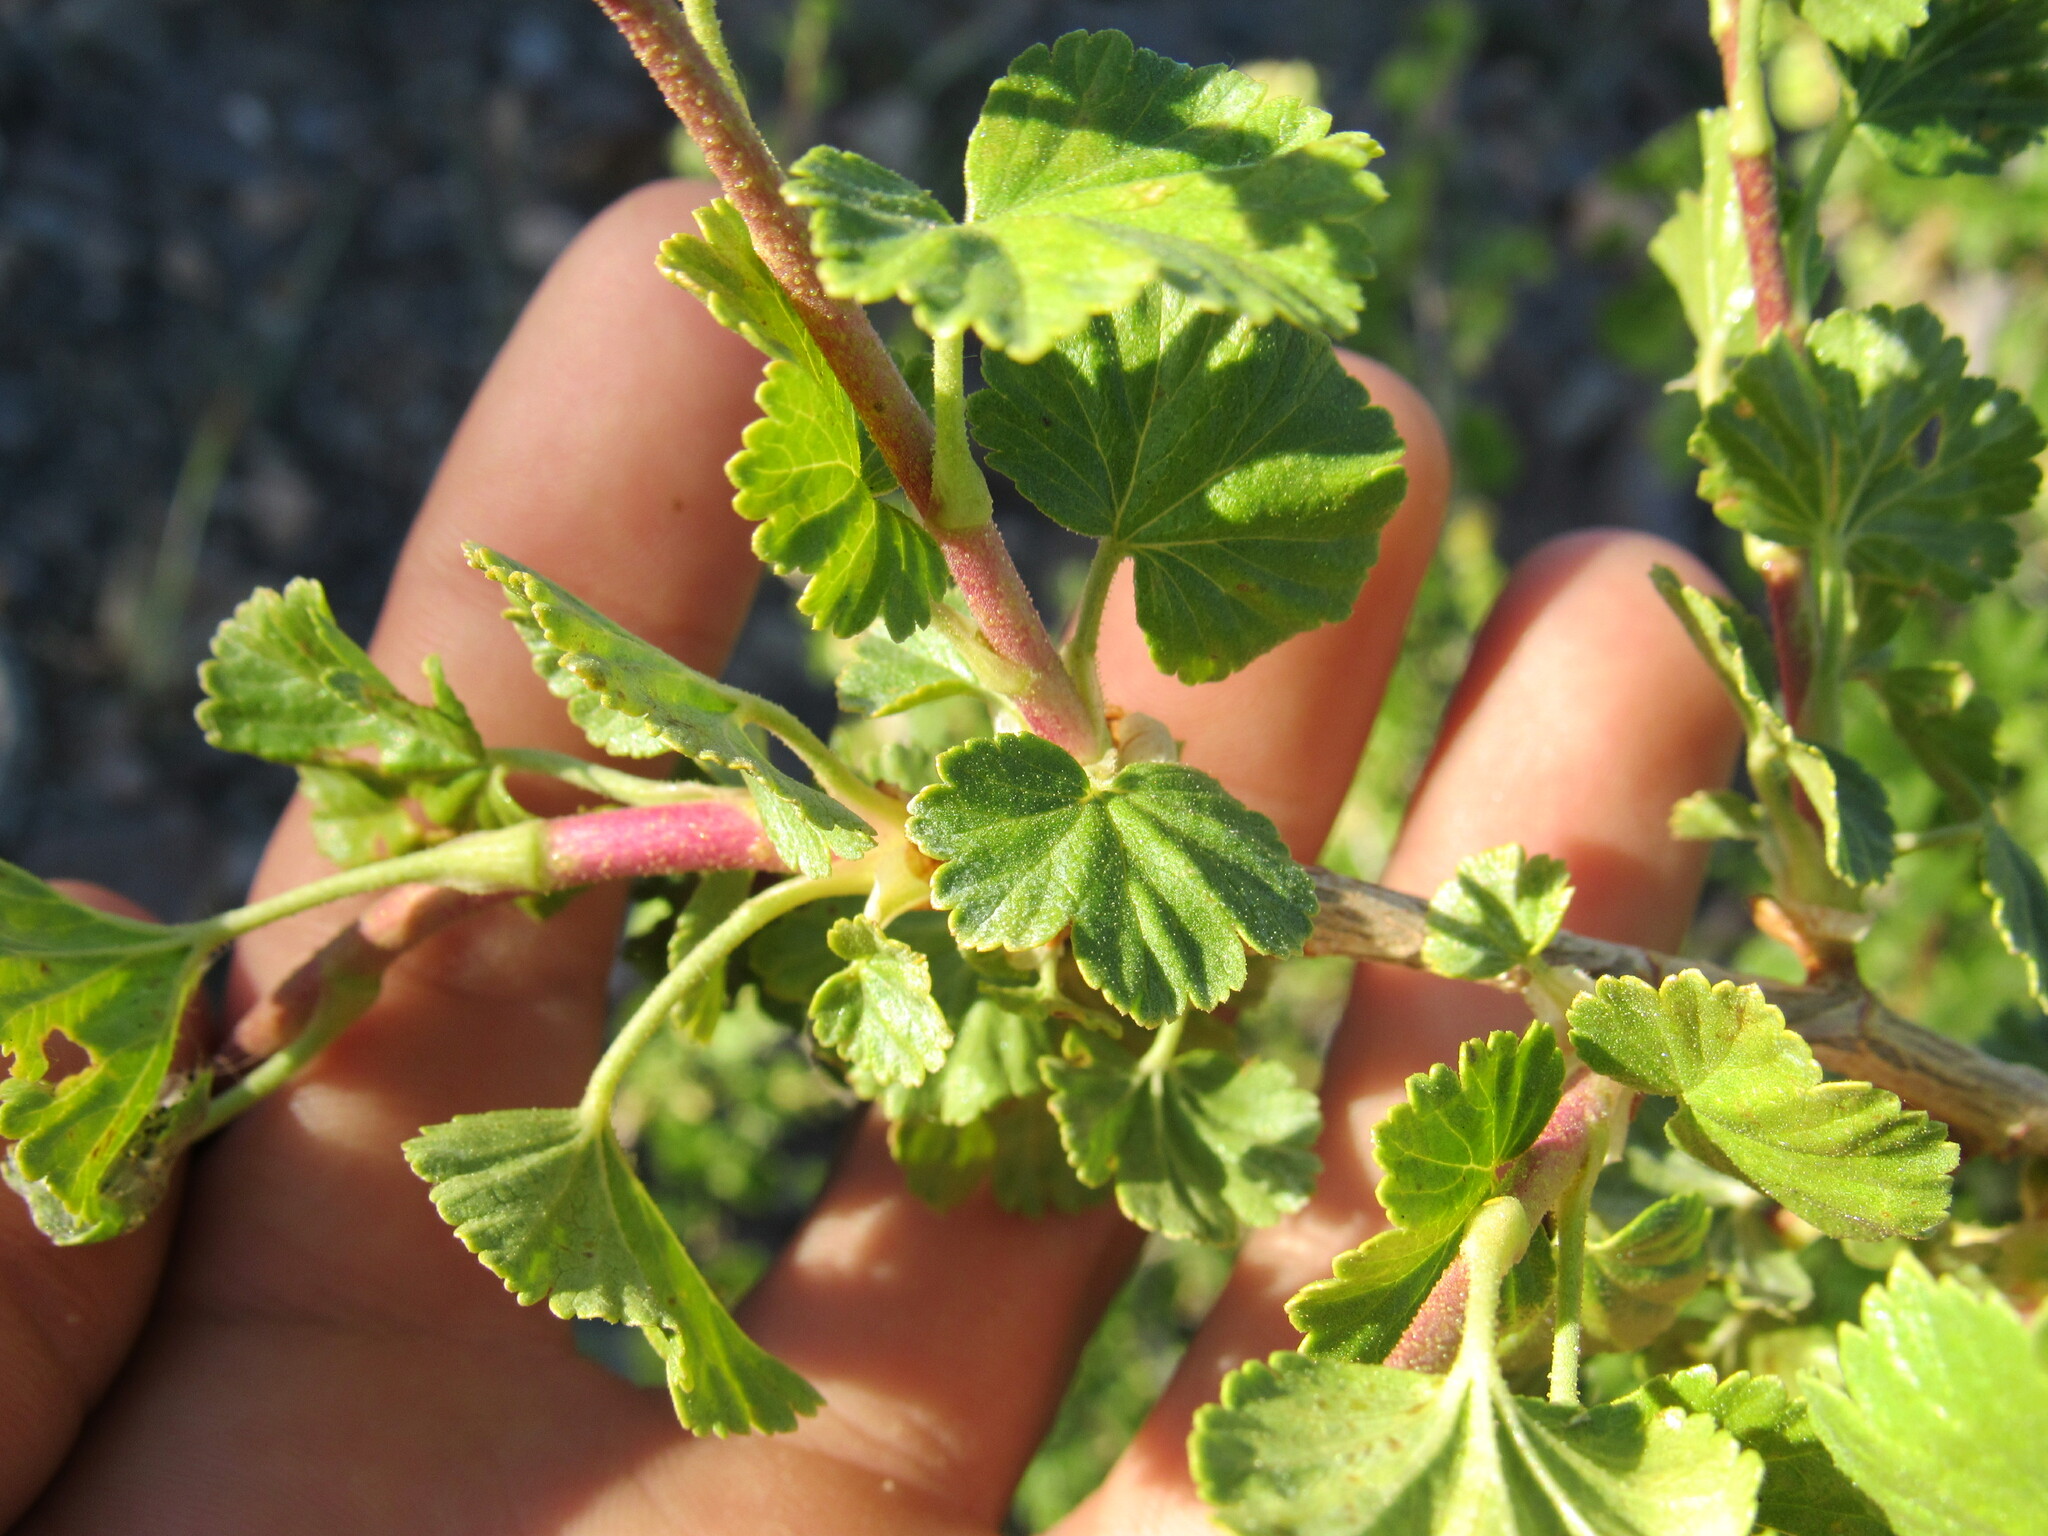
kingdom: Plantae
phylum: Tracheophyta
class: Magnoliopsida
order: Saxifragales
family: Grossulariaceae
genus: Ribes
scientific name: Ribes cereum
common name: Wax currant
